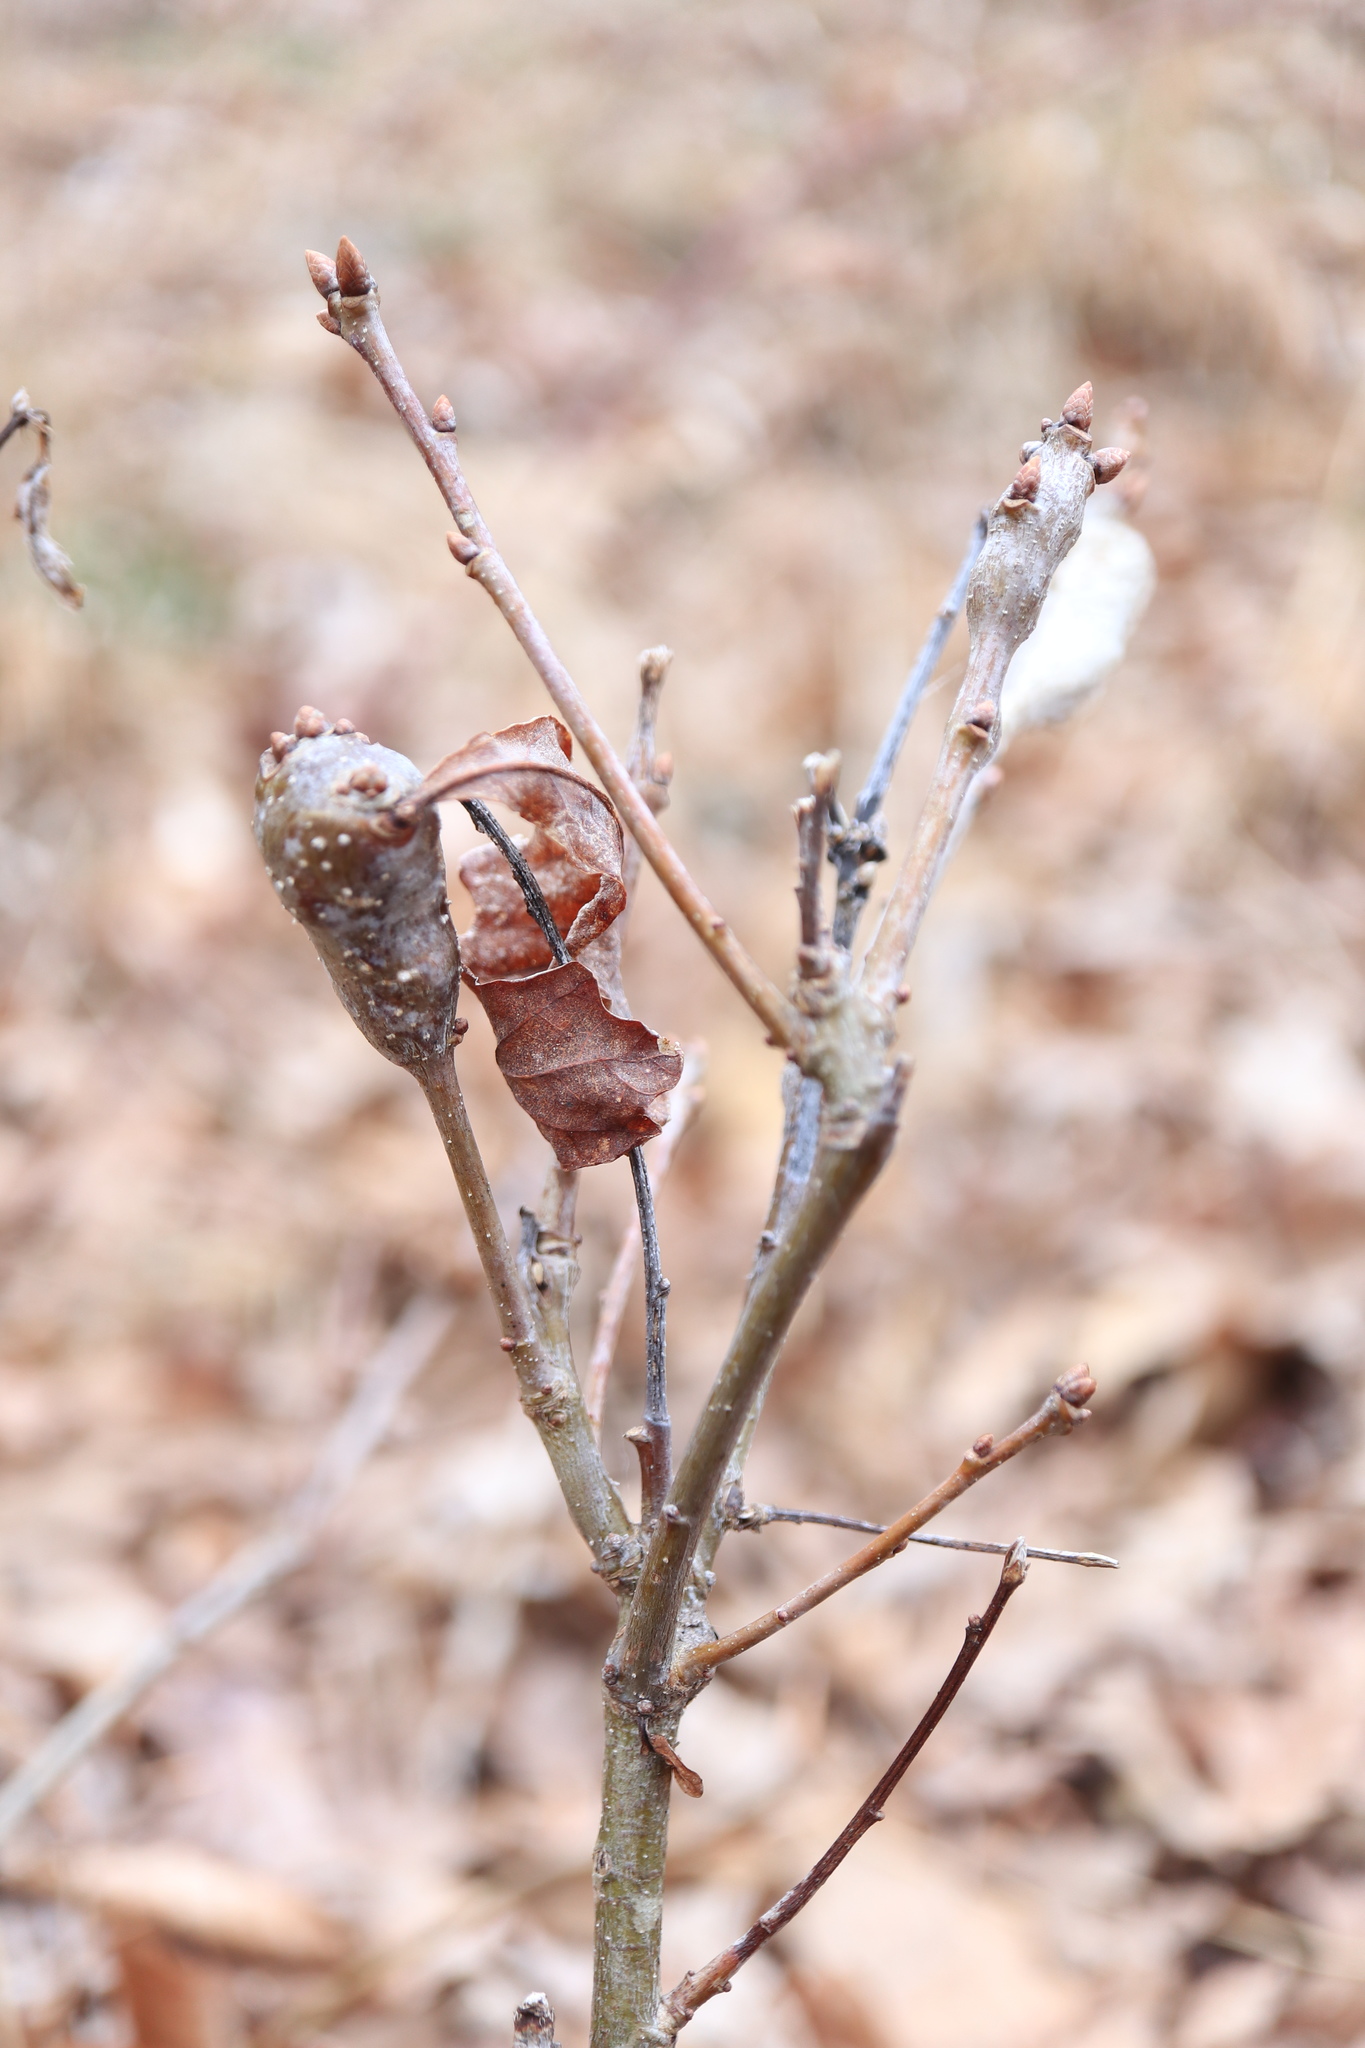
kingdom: Animalia
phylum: Arthropoda
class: Insecta
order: Hymenoptera
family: Cynipidae
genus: Neuroterus
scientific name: Neuroterus quercusbaccarum
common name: Common spangle gall
